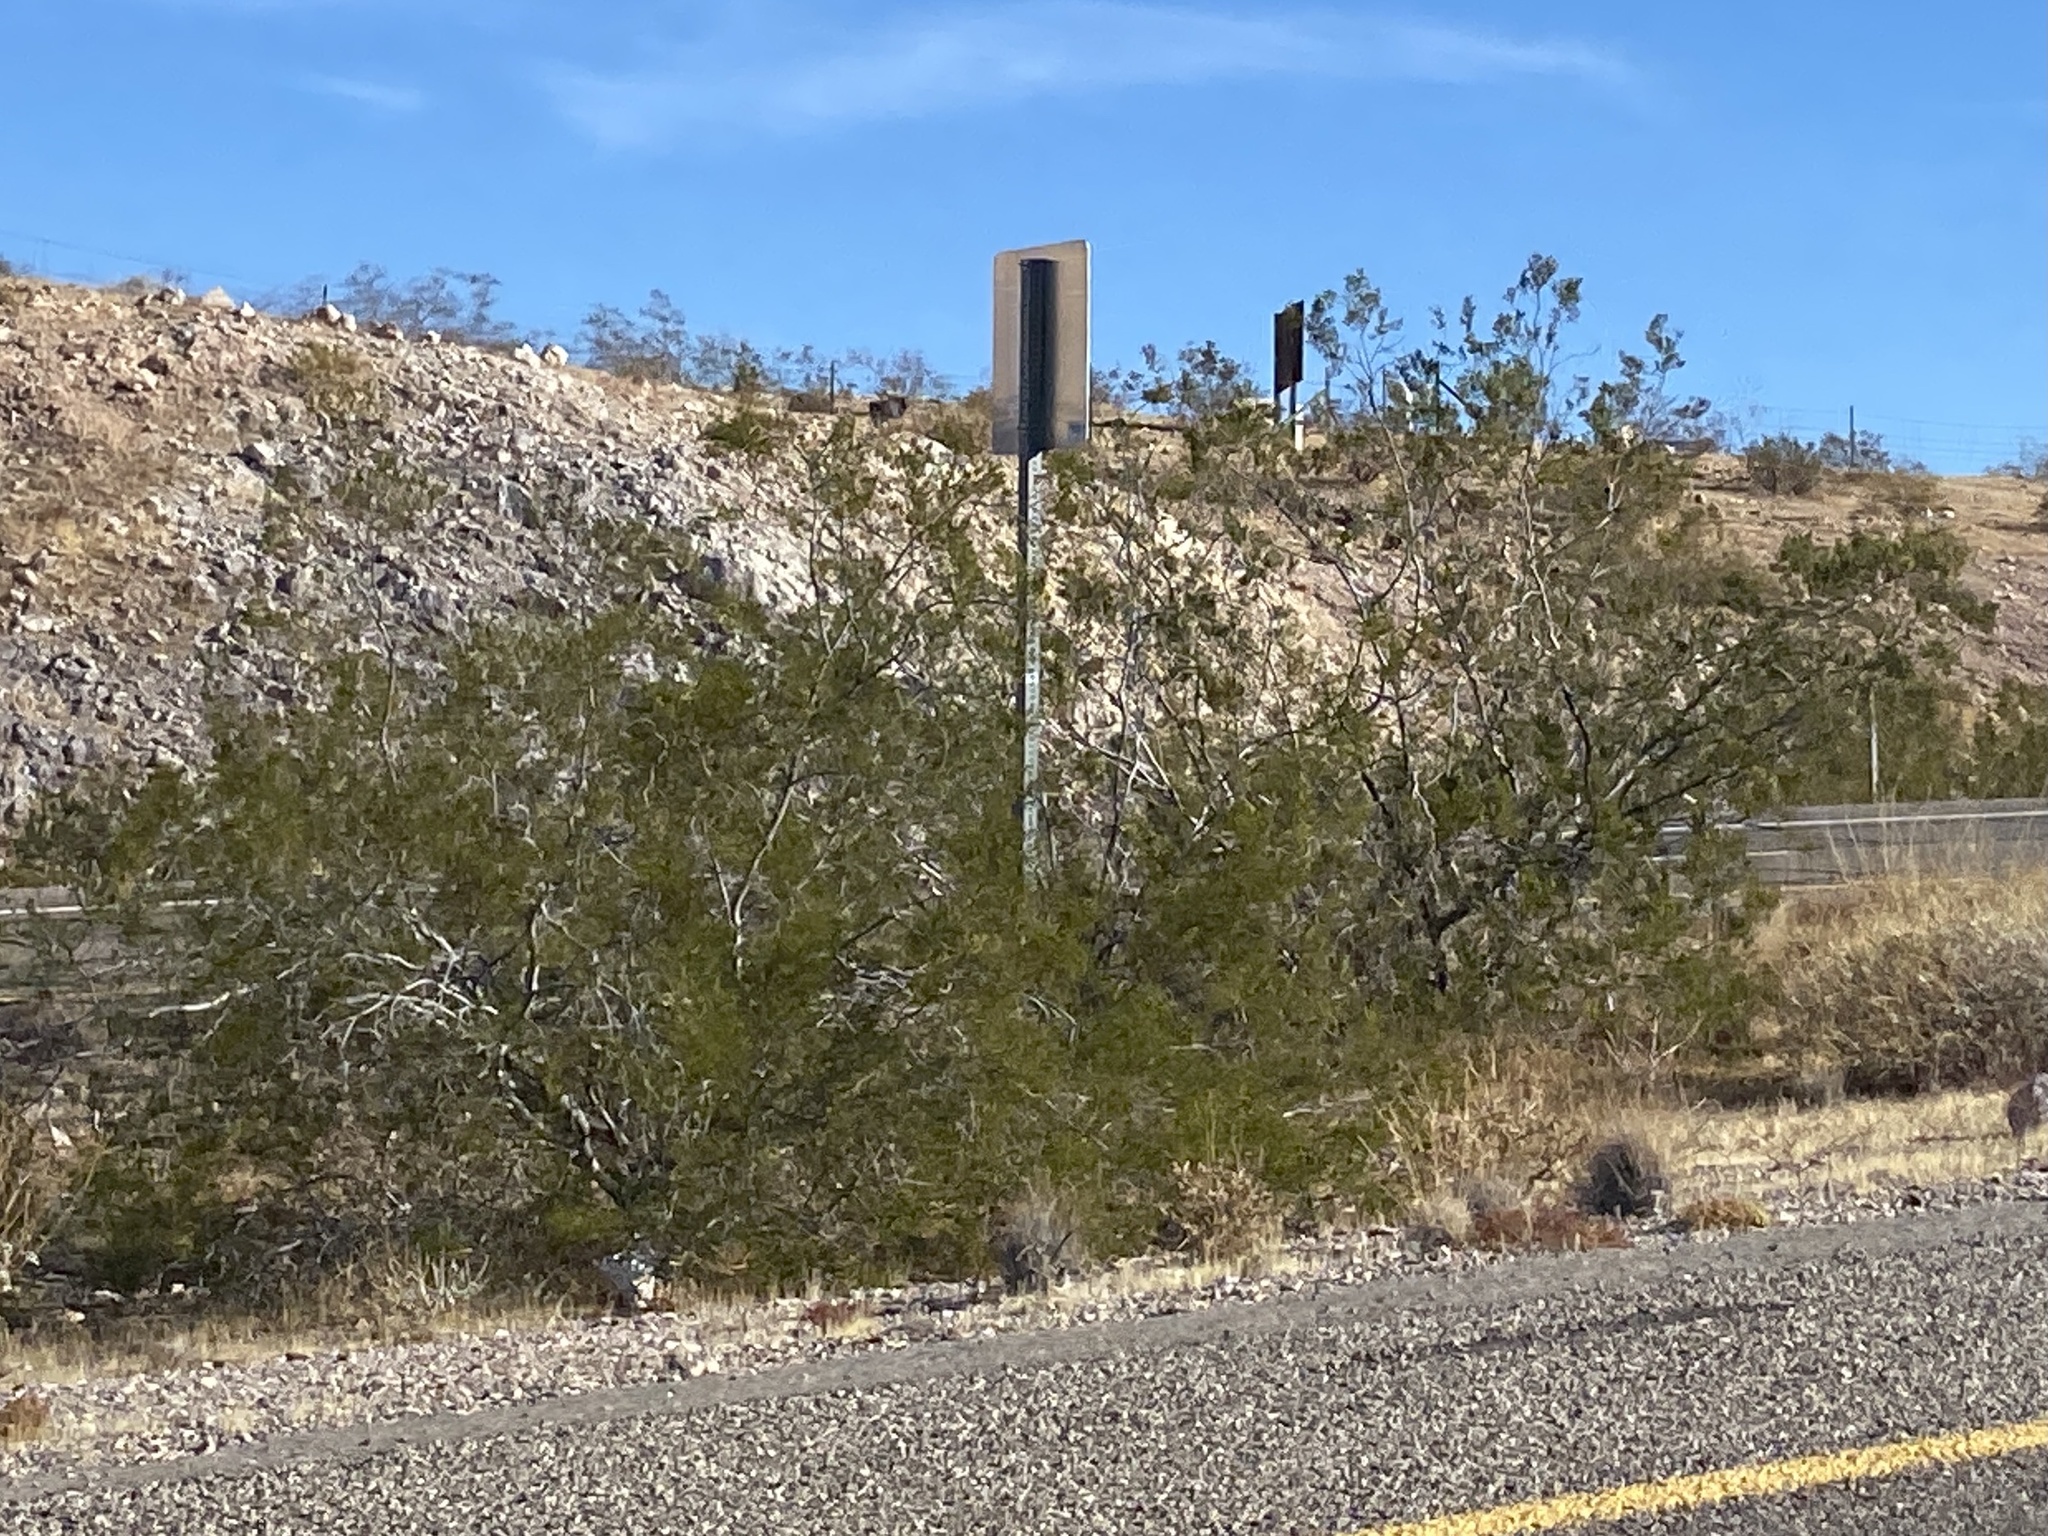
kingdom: Plantae
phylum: Tracheophyta
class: Magnoliopsida
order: Zygophyllales
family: Zygophyllaceae
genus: Larrea
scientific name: Larrea tridentata
